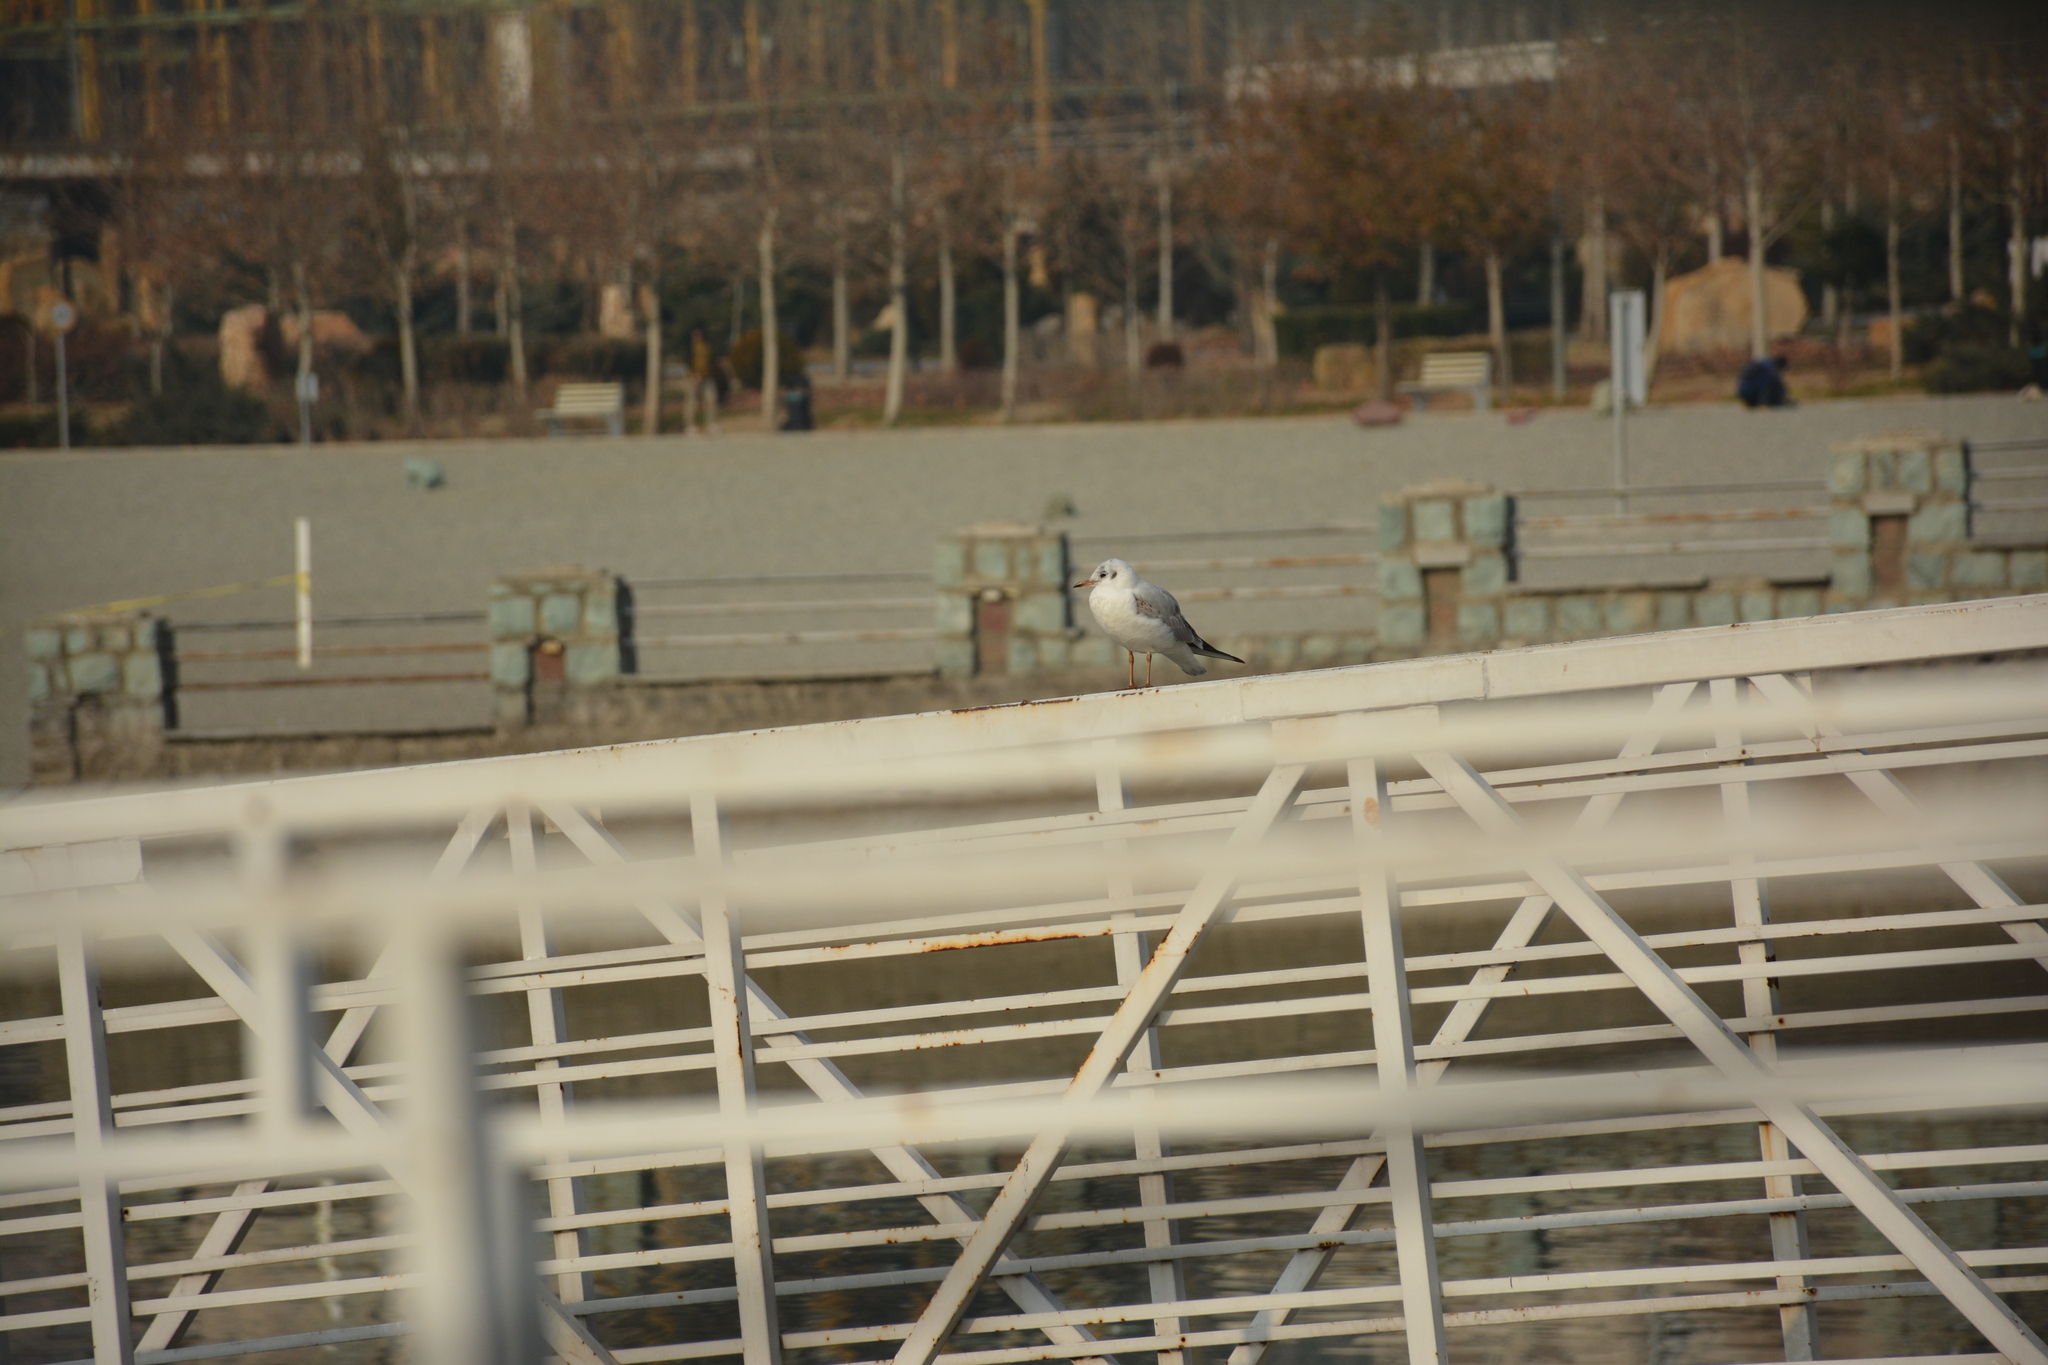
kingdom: Animalia
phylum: Chordata
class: Aves
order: Charadriiformes
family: Laridae
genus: Chroicocephalus
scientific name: Chroicocephalus ridibundus
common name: Black-headed gull
